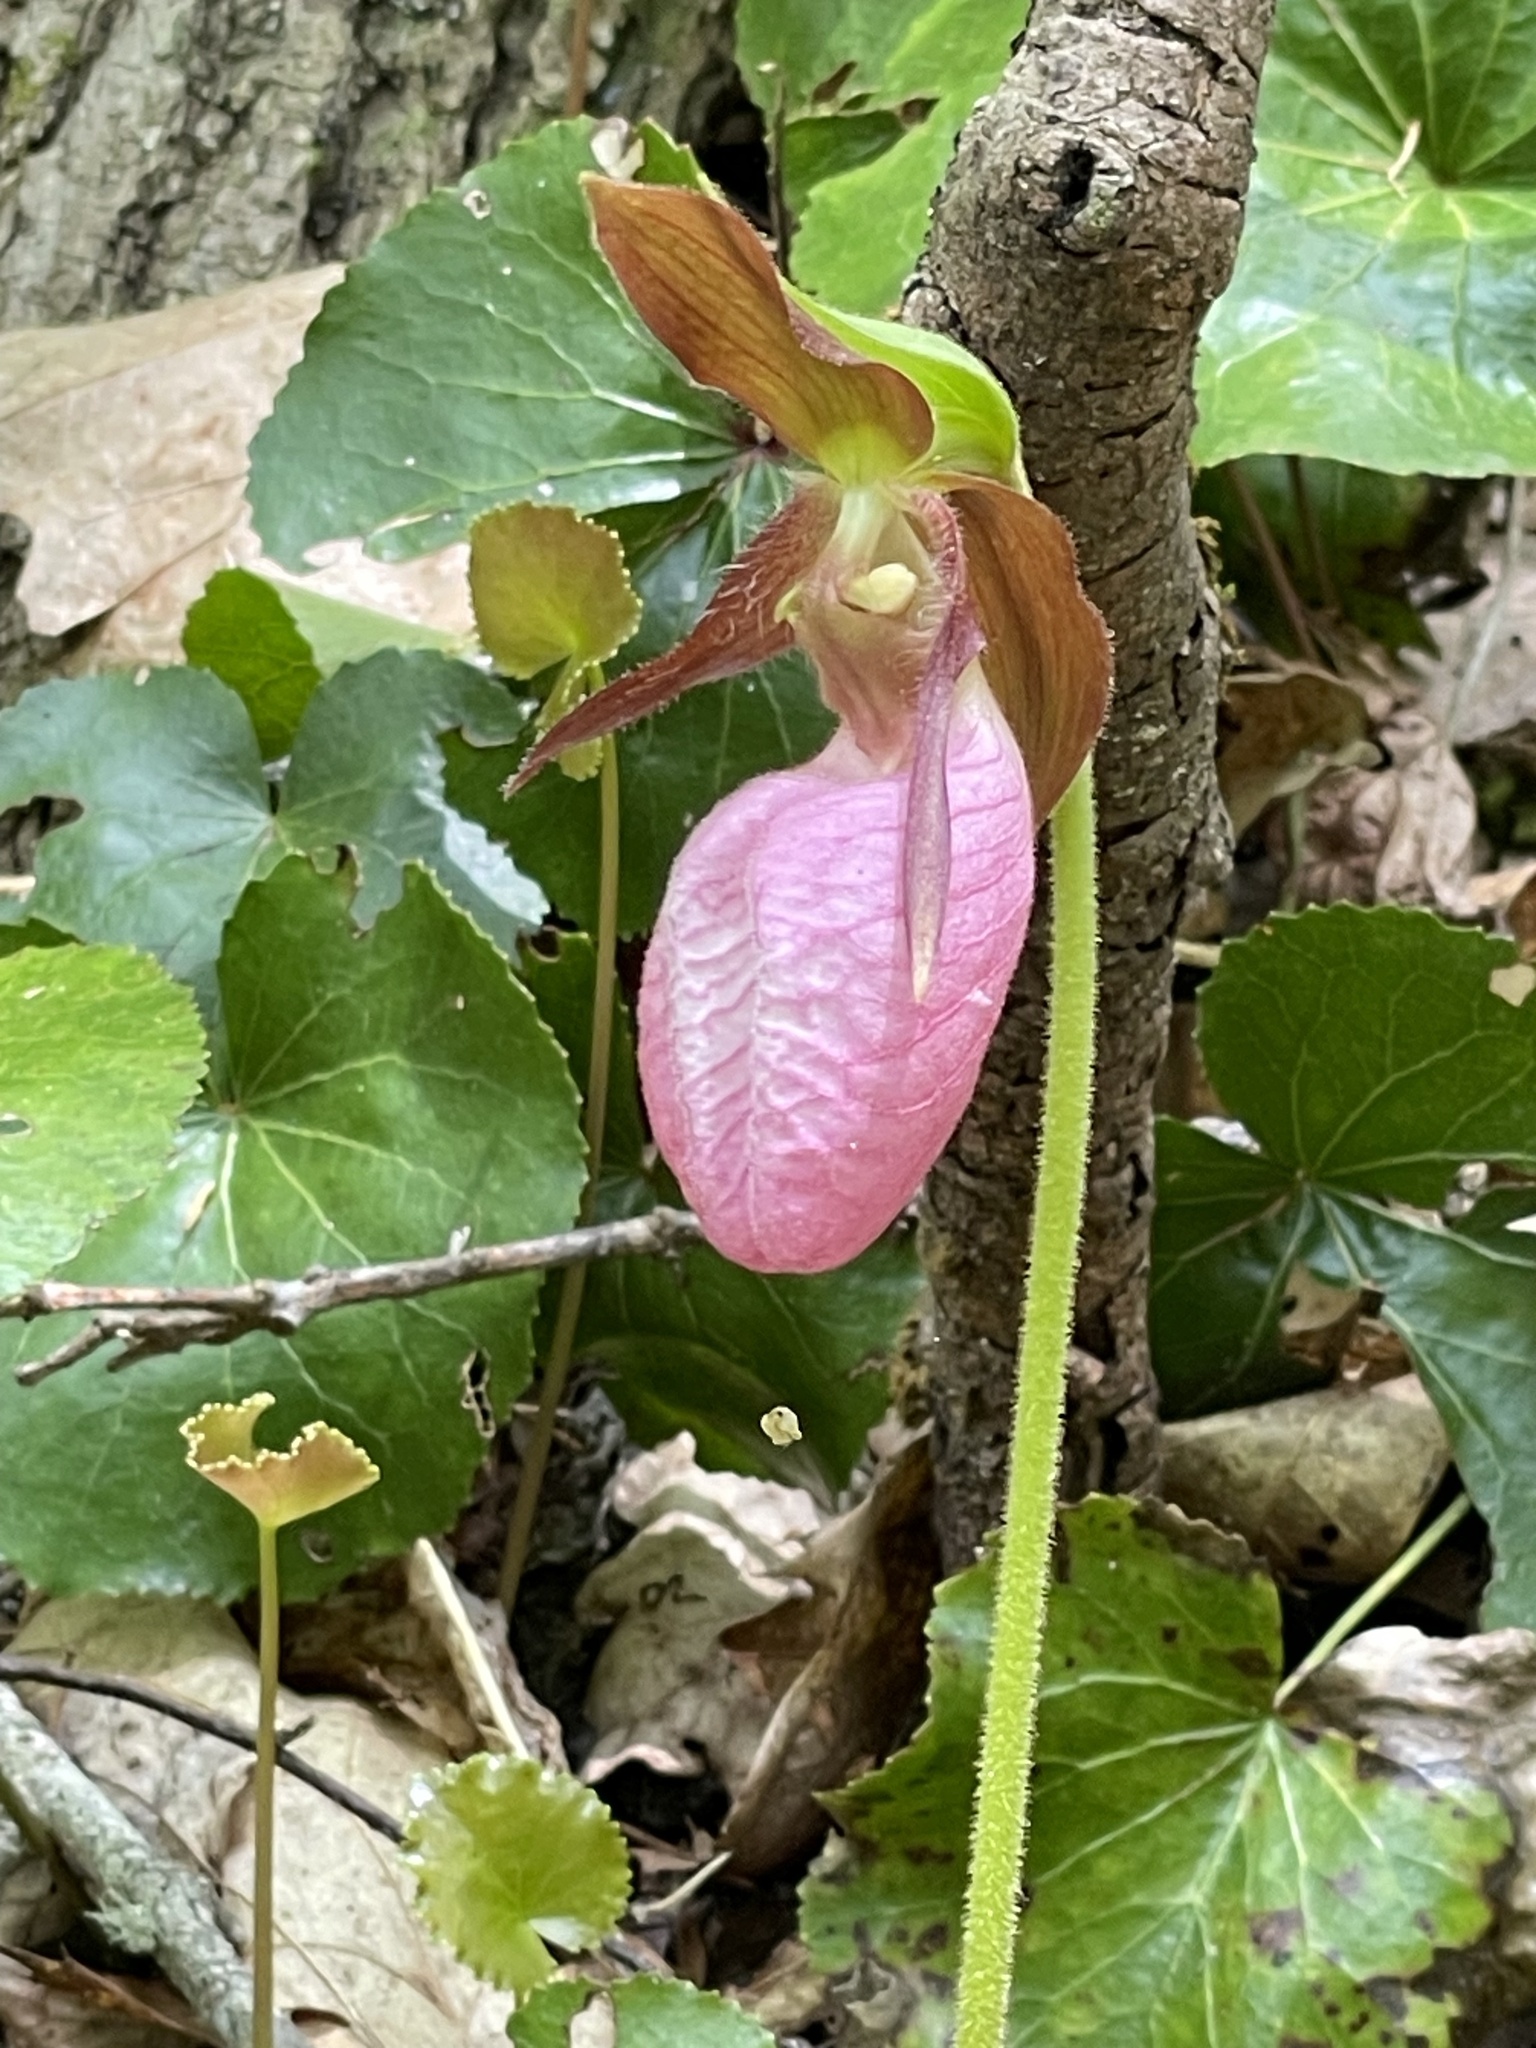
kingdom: Plantae
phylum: Tracheophyta
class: Liliopsida
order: Asparagales
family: Orchidaceae
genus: Cypripedium
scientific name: Cypripedium acaule
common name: Pink lady's-slipper
